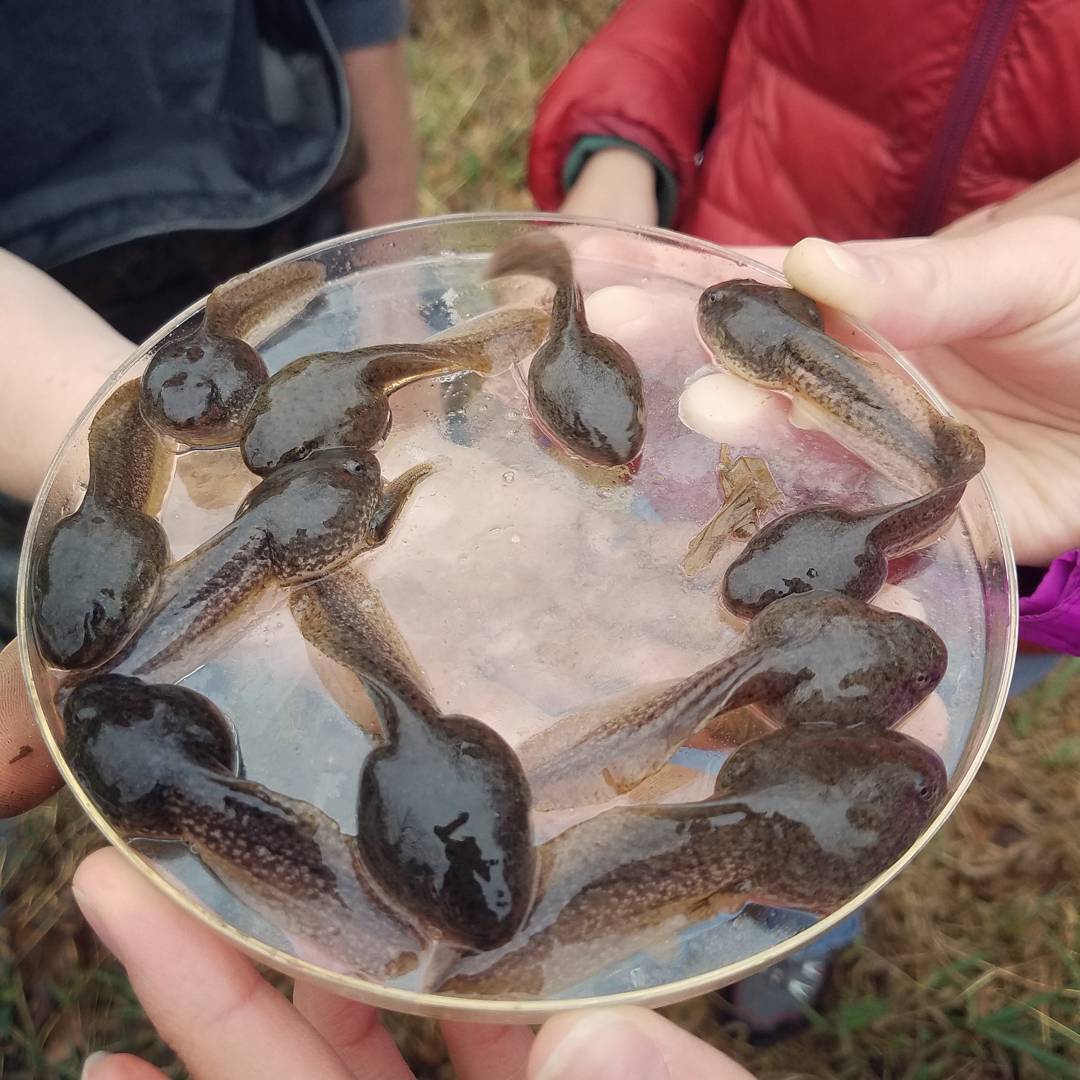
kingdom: Animalia
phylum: Chordata
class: Amphibia
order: Anura
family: Ranidae
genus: Lithobates
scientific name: Lithobates clamitans
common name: Green frog
